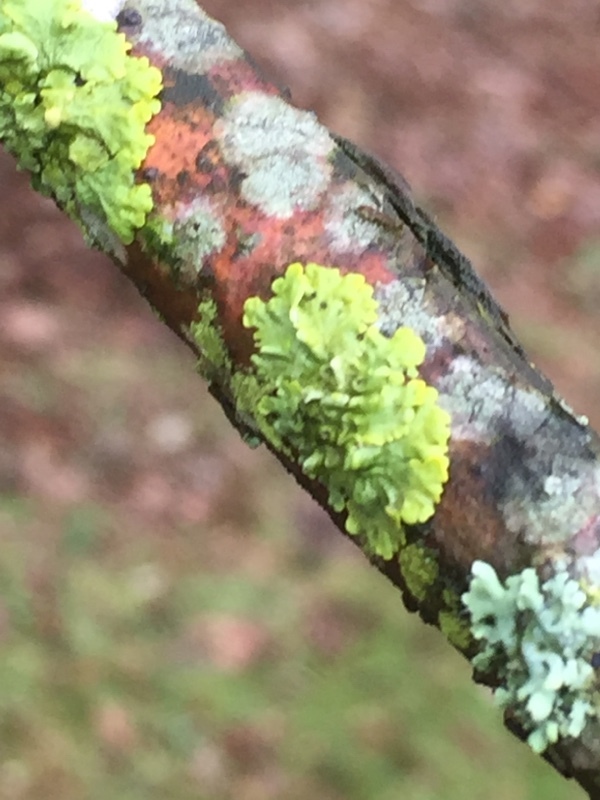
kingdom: Fungi
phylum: Ascomycota
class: Lecanoromycetes
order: Teloschistales
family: Teloschistaceae
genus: Xanthoria
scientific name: Xanthoria parietina
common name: Common orange lichen
